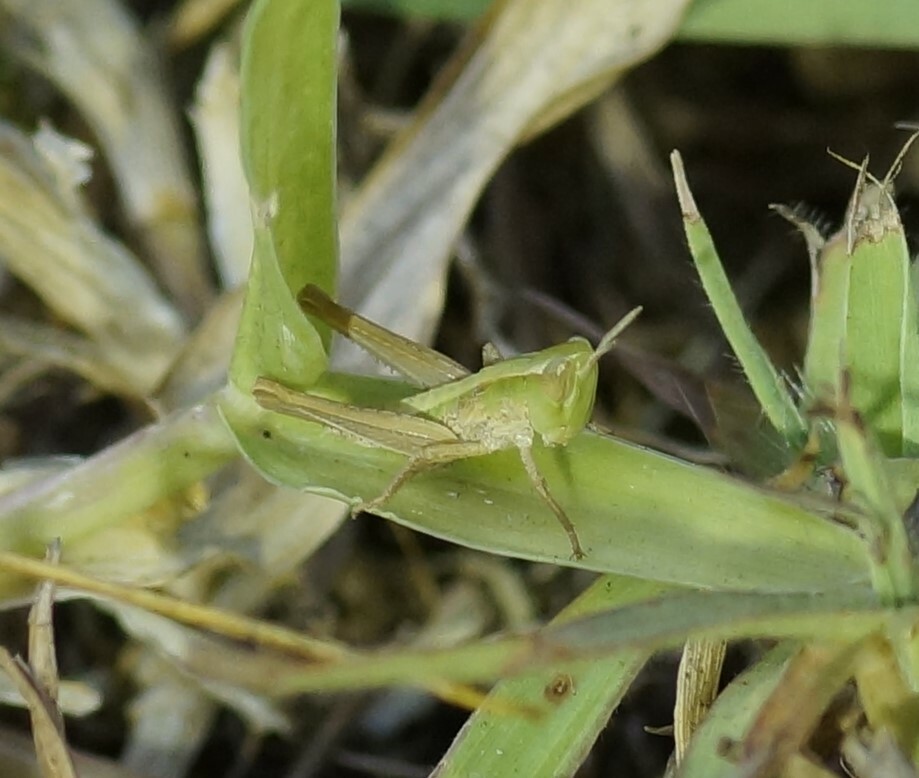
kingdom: Animalia
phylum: Arthropoda
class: Insecta
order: Orthoptera
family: Acrididae
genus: Calephorops
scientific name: Calephorops viridis
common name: Calephorops
